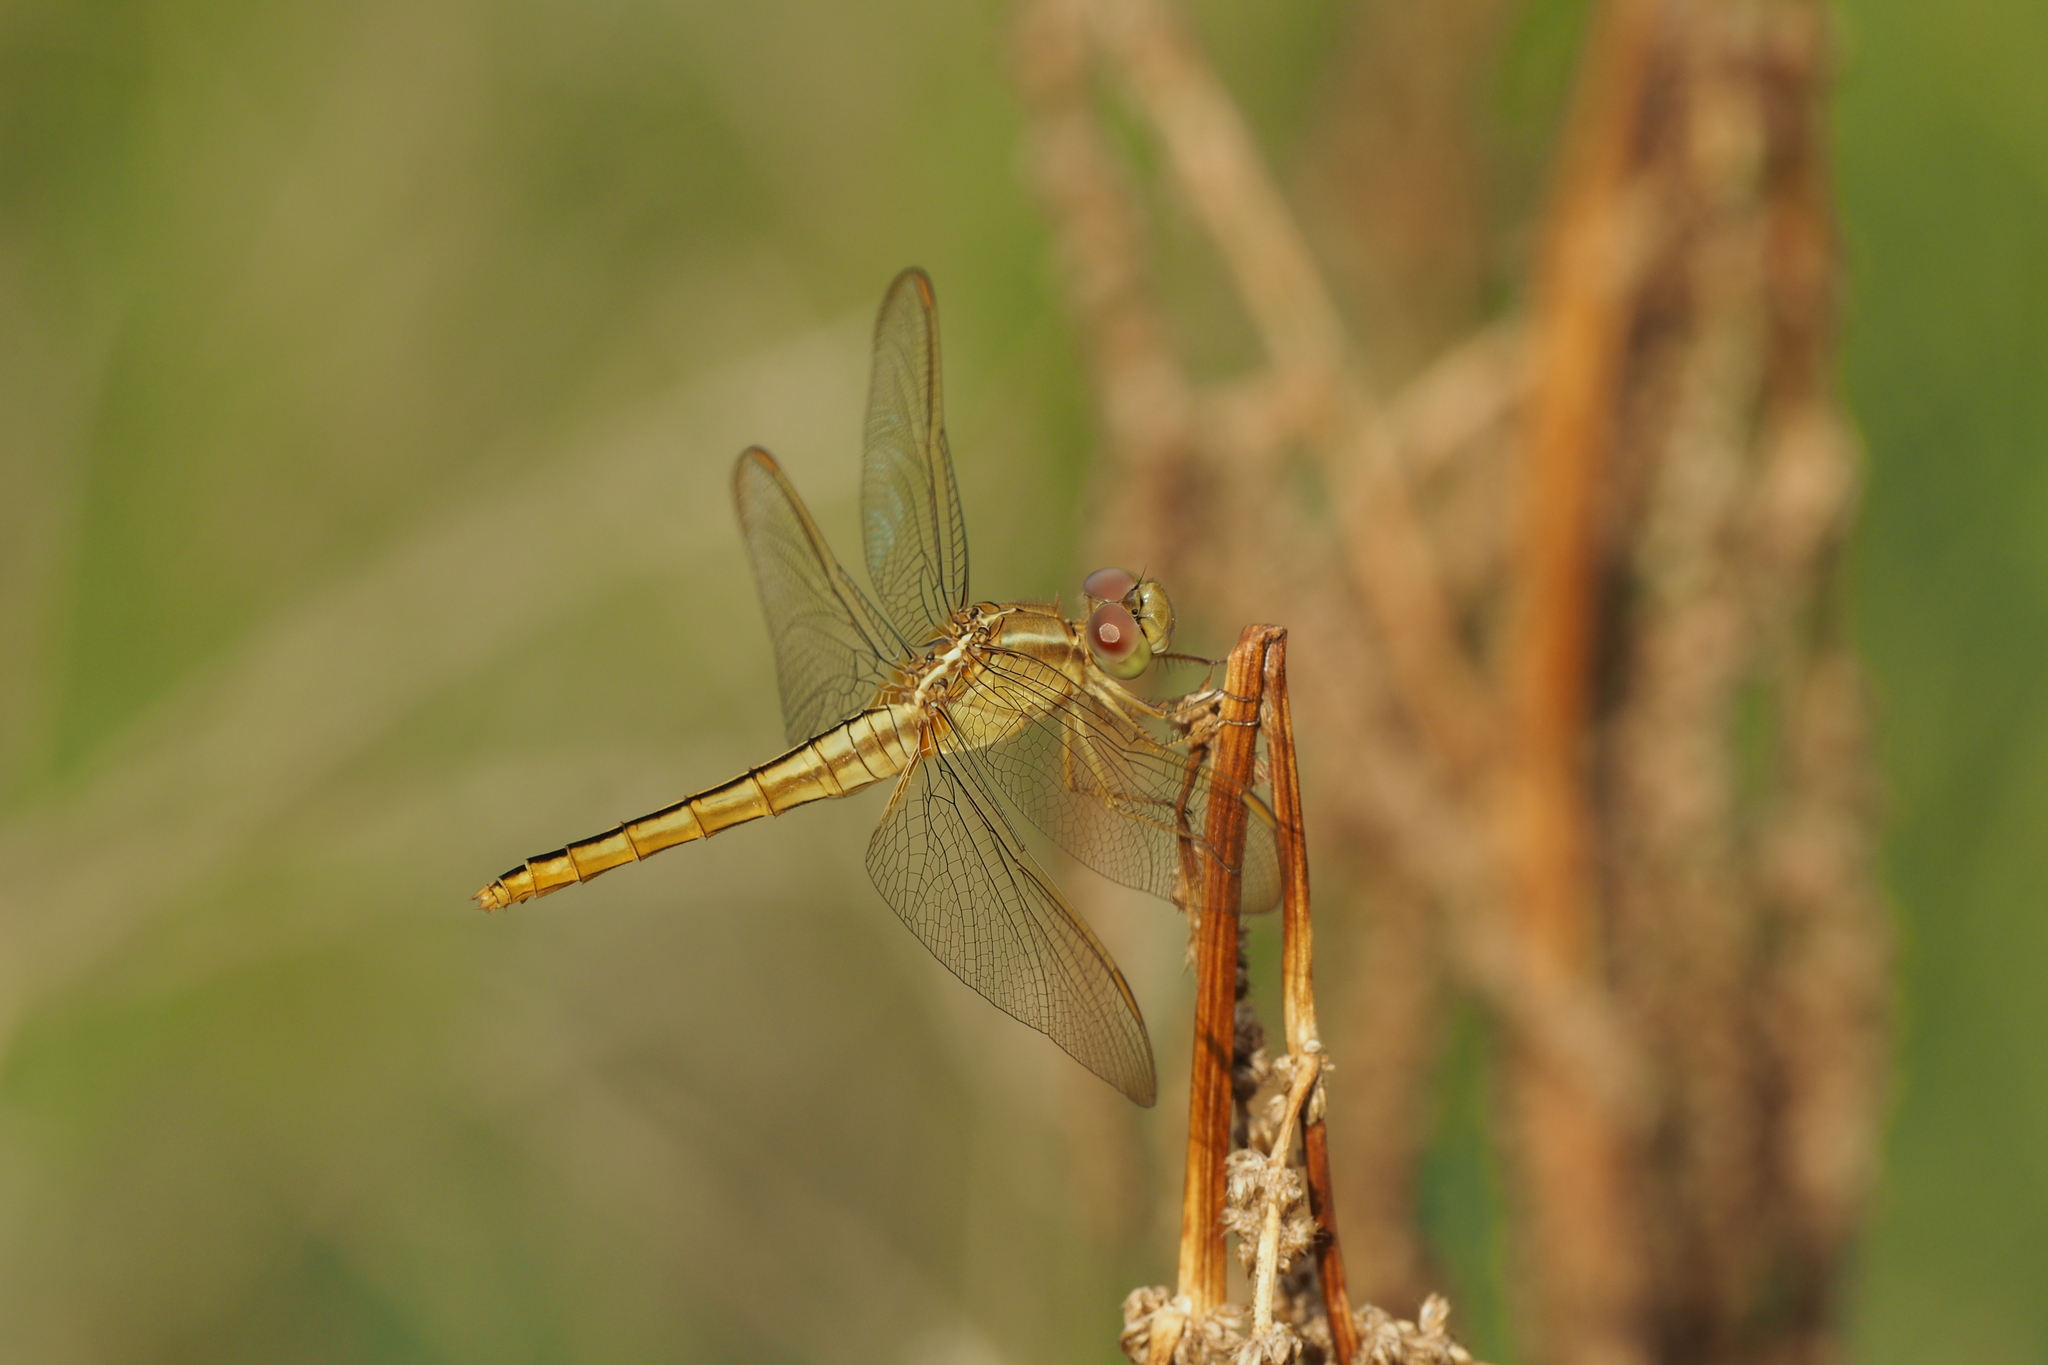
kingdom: Animalia
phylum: Arthropoda
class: Insecta
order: Odonata
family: Libellulidae
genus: Crocothemis
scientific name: Crocothemis servilia
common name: Scarlet skimmer
